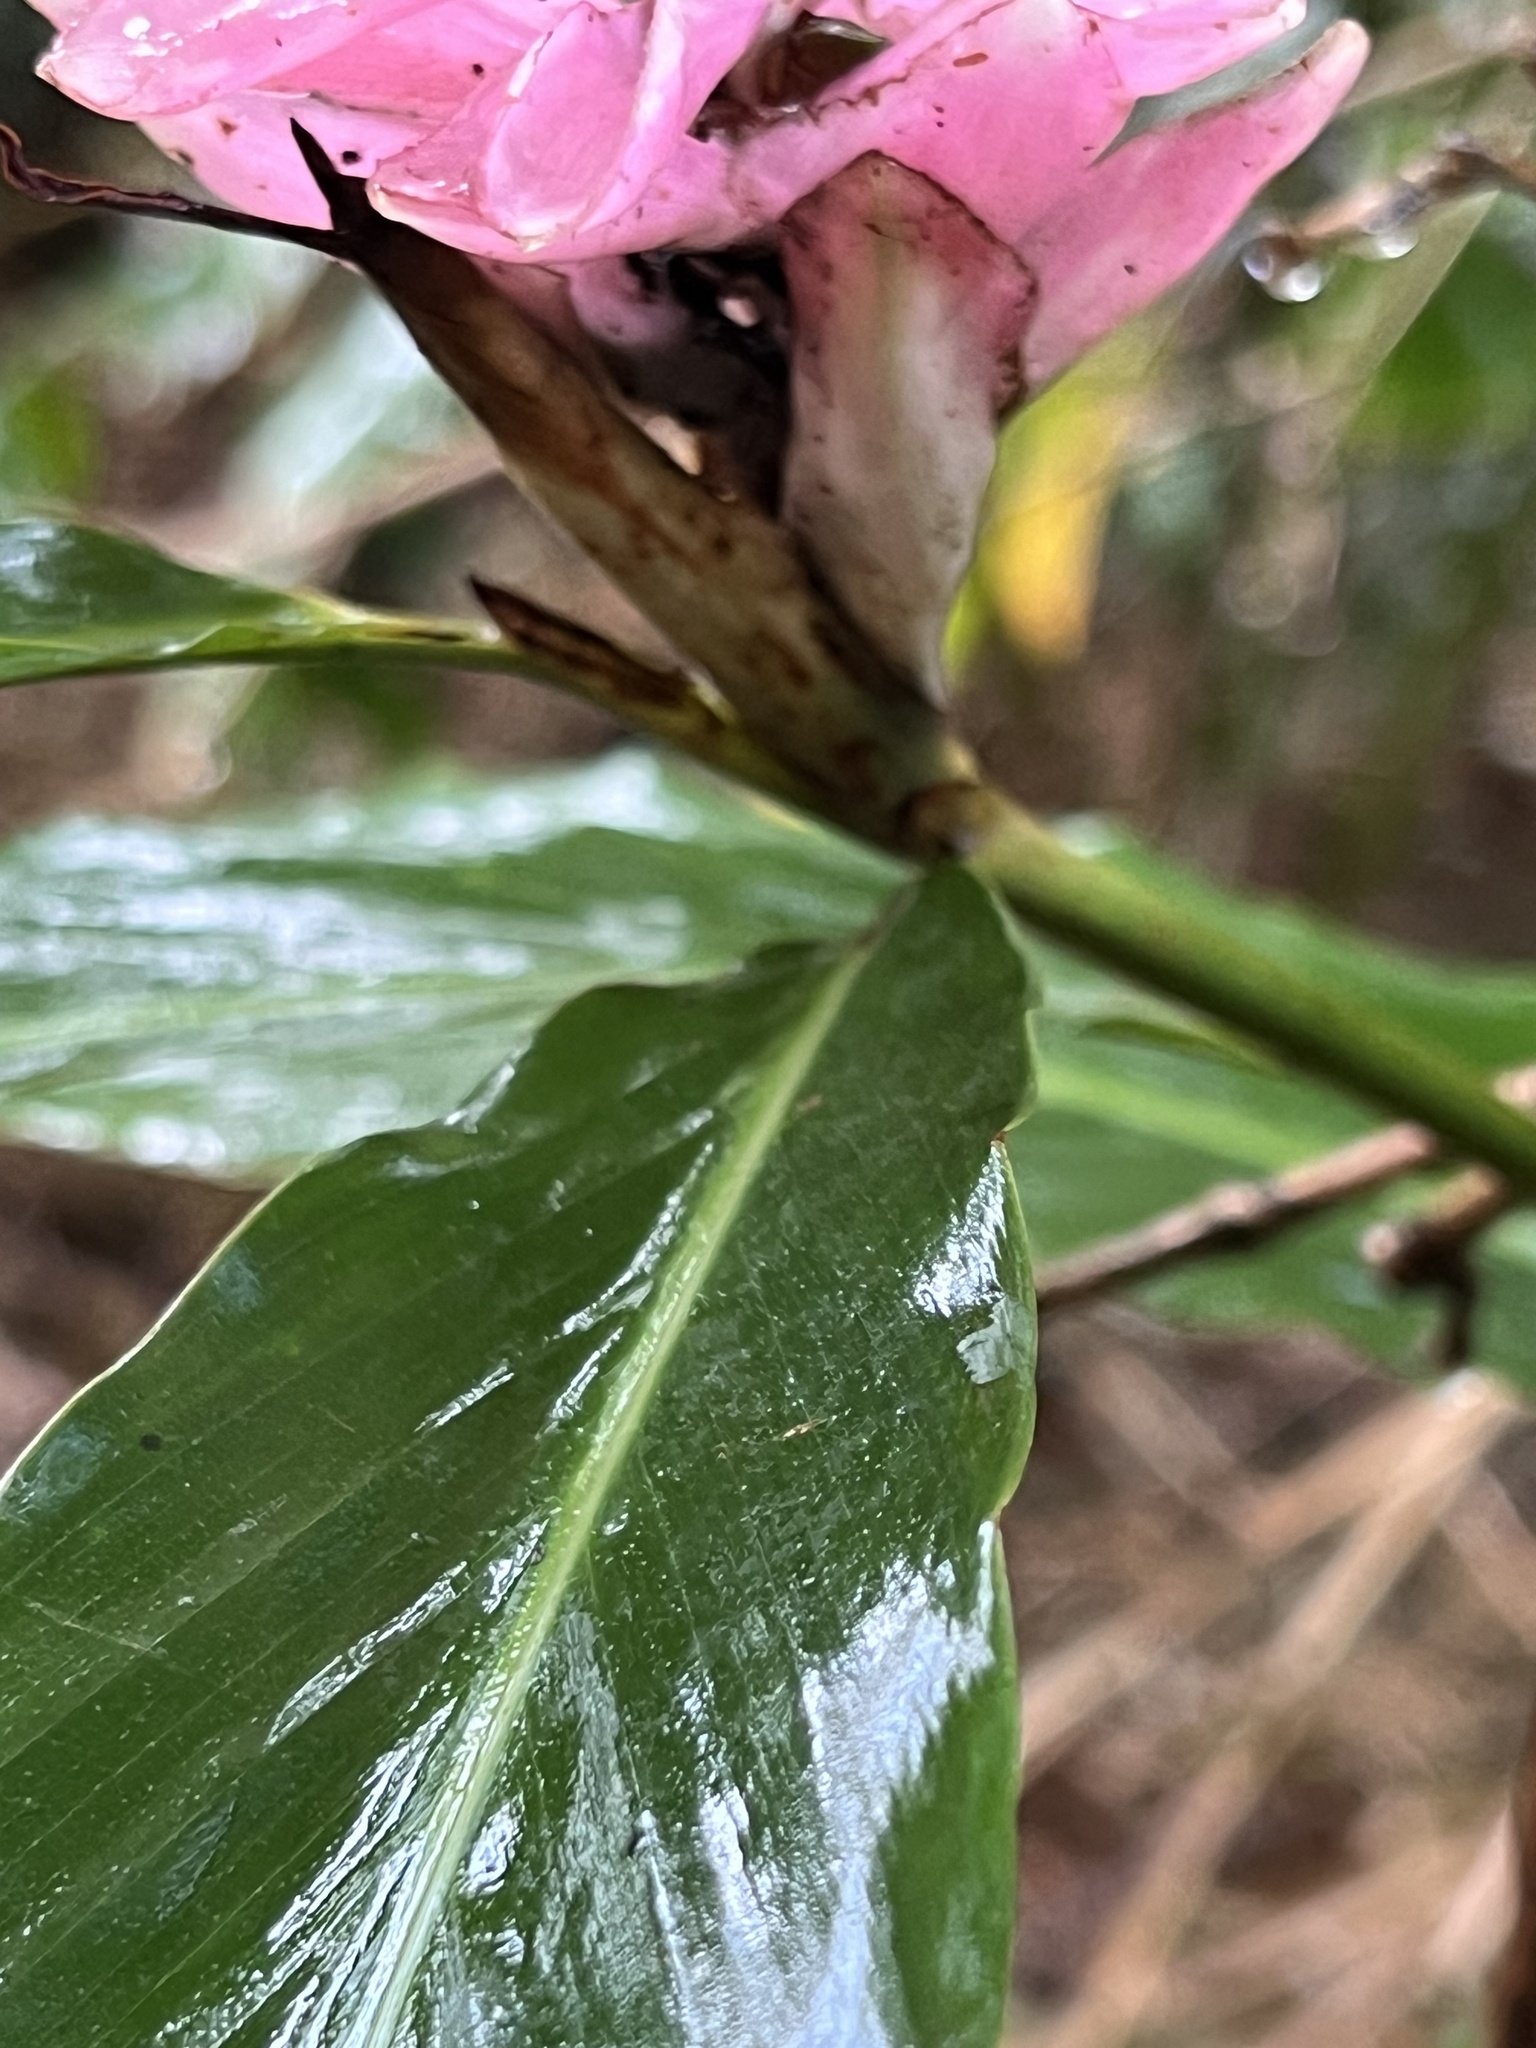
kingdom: Plantae
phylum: Tracheophyta
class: Liliopsida
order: Zingiberales
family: Zingiberaceae
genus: Alpinia
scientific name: Alpinia purpurata
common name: Red ginger
